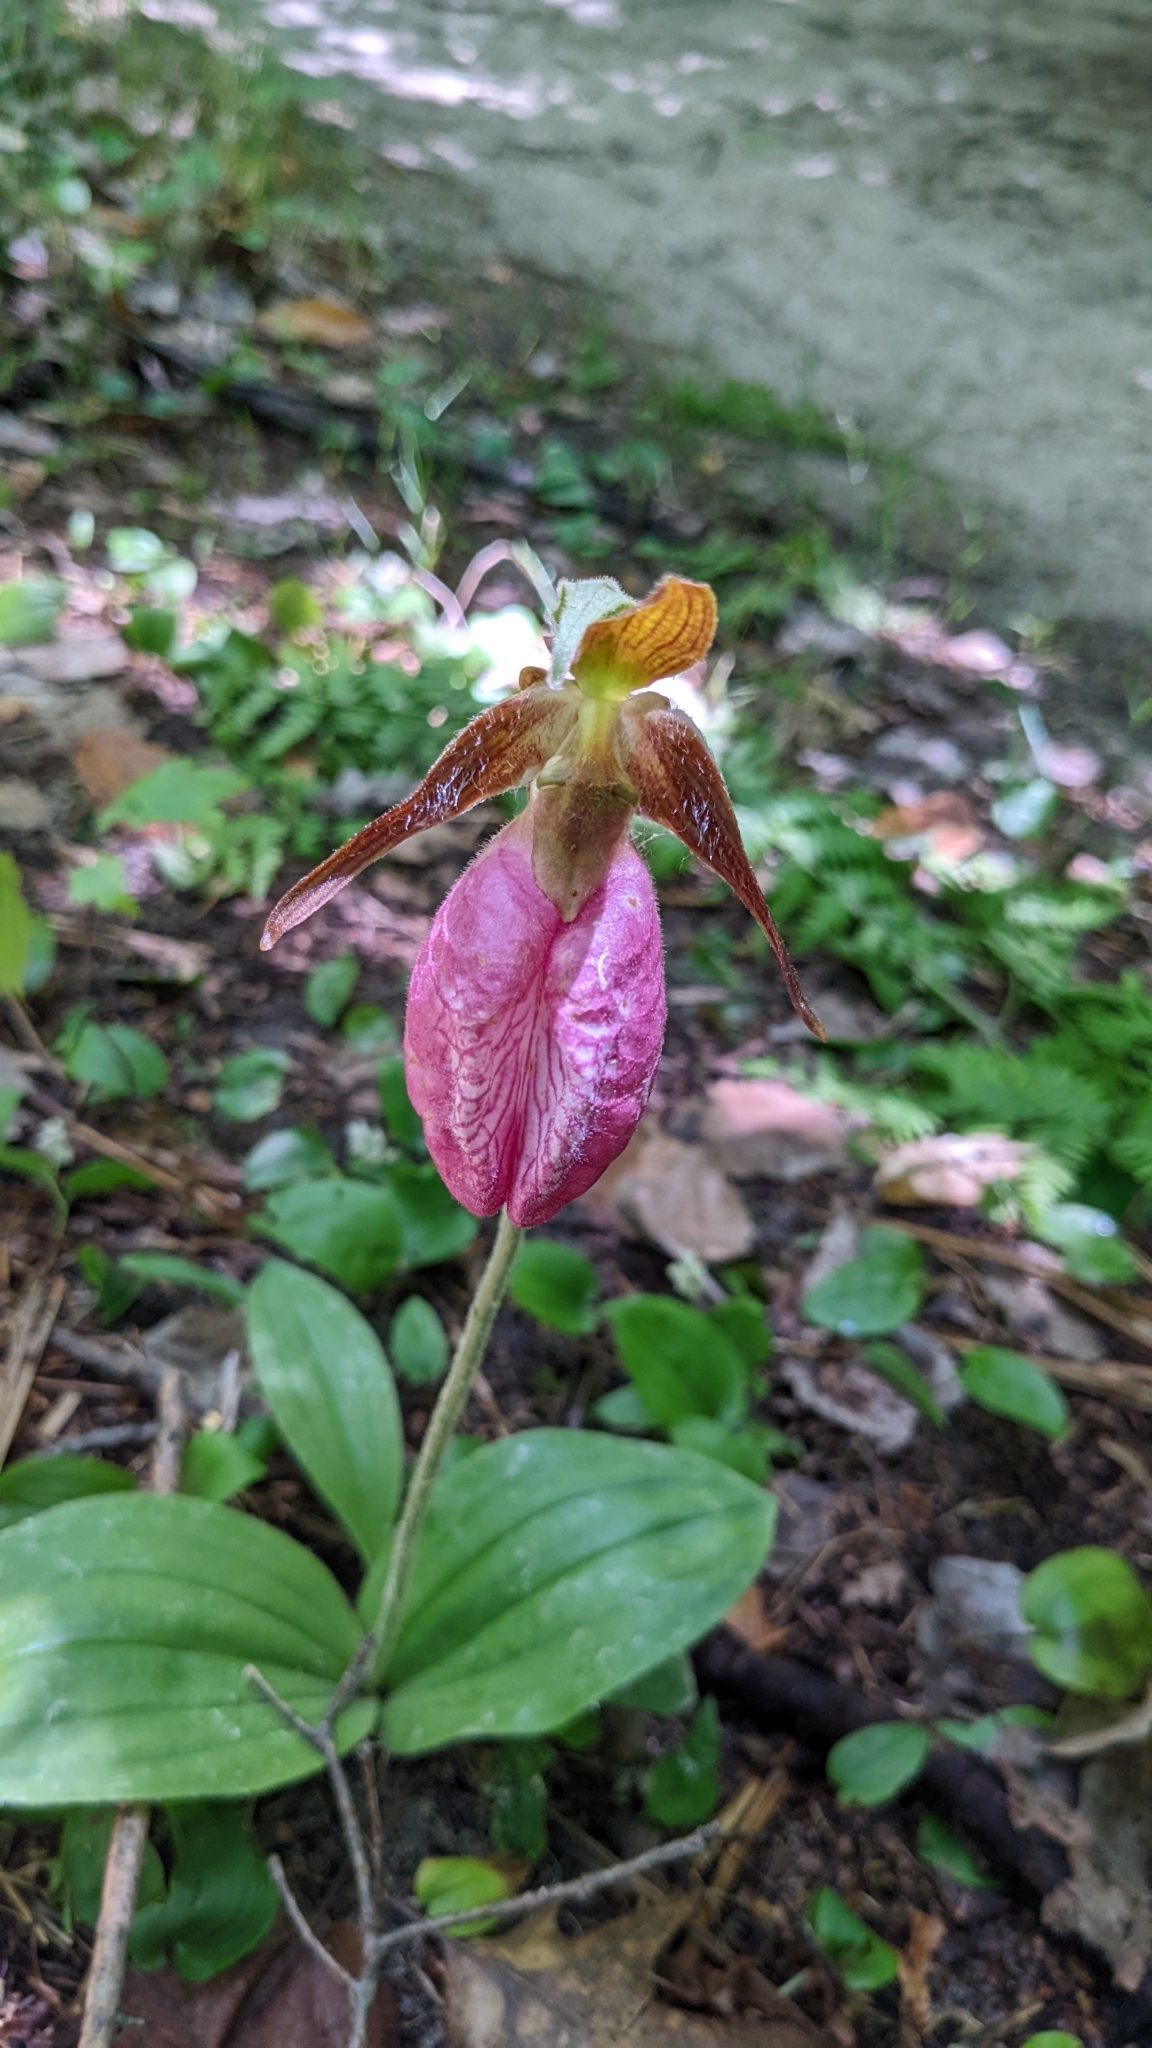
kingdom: Plantae
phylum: Tracheophyta
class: Liliopsida
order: Asparagales
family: Orchidaceae
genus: Cypripedium
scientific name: Cypripedium acaule
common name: Pink lady's-slipper
